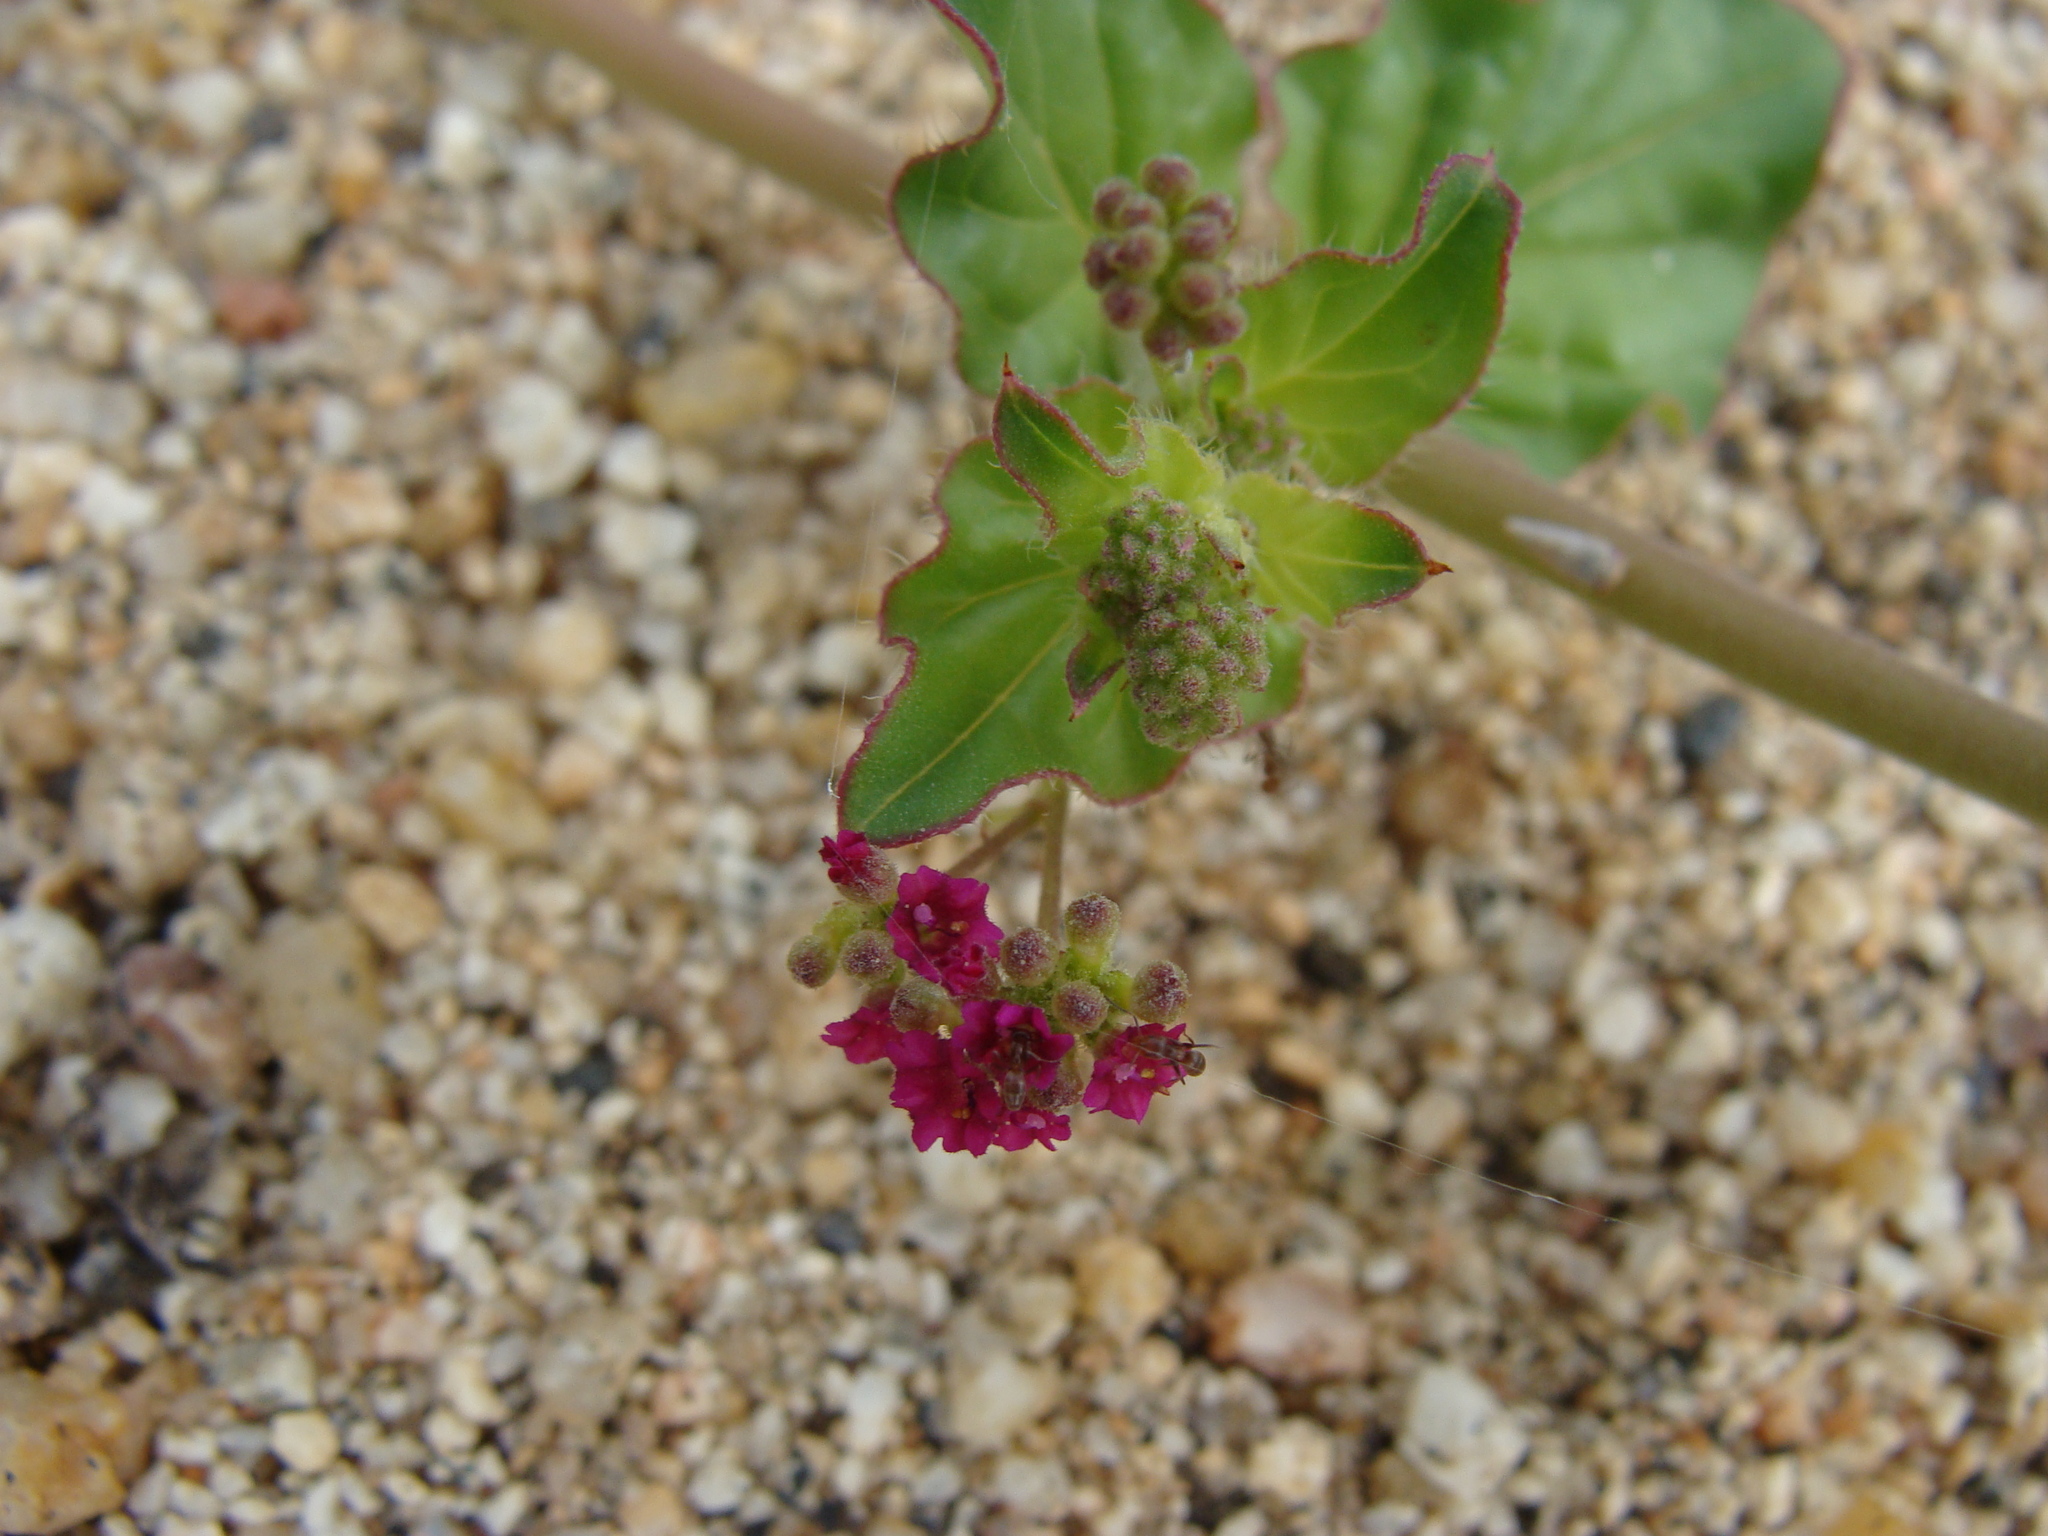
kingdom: Plantae
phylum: Tracheophyta
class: Magnoliopsida
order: Caryophyllales
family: Nyctaginaceae
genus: Boerhavia
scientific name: Boerhavia coccinea
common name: Scarlet spiderling
